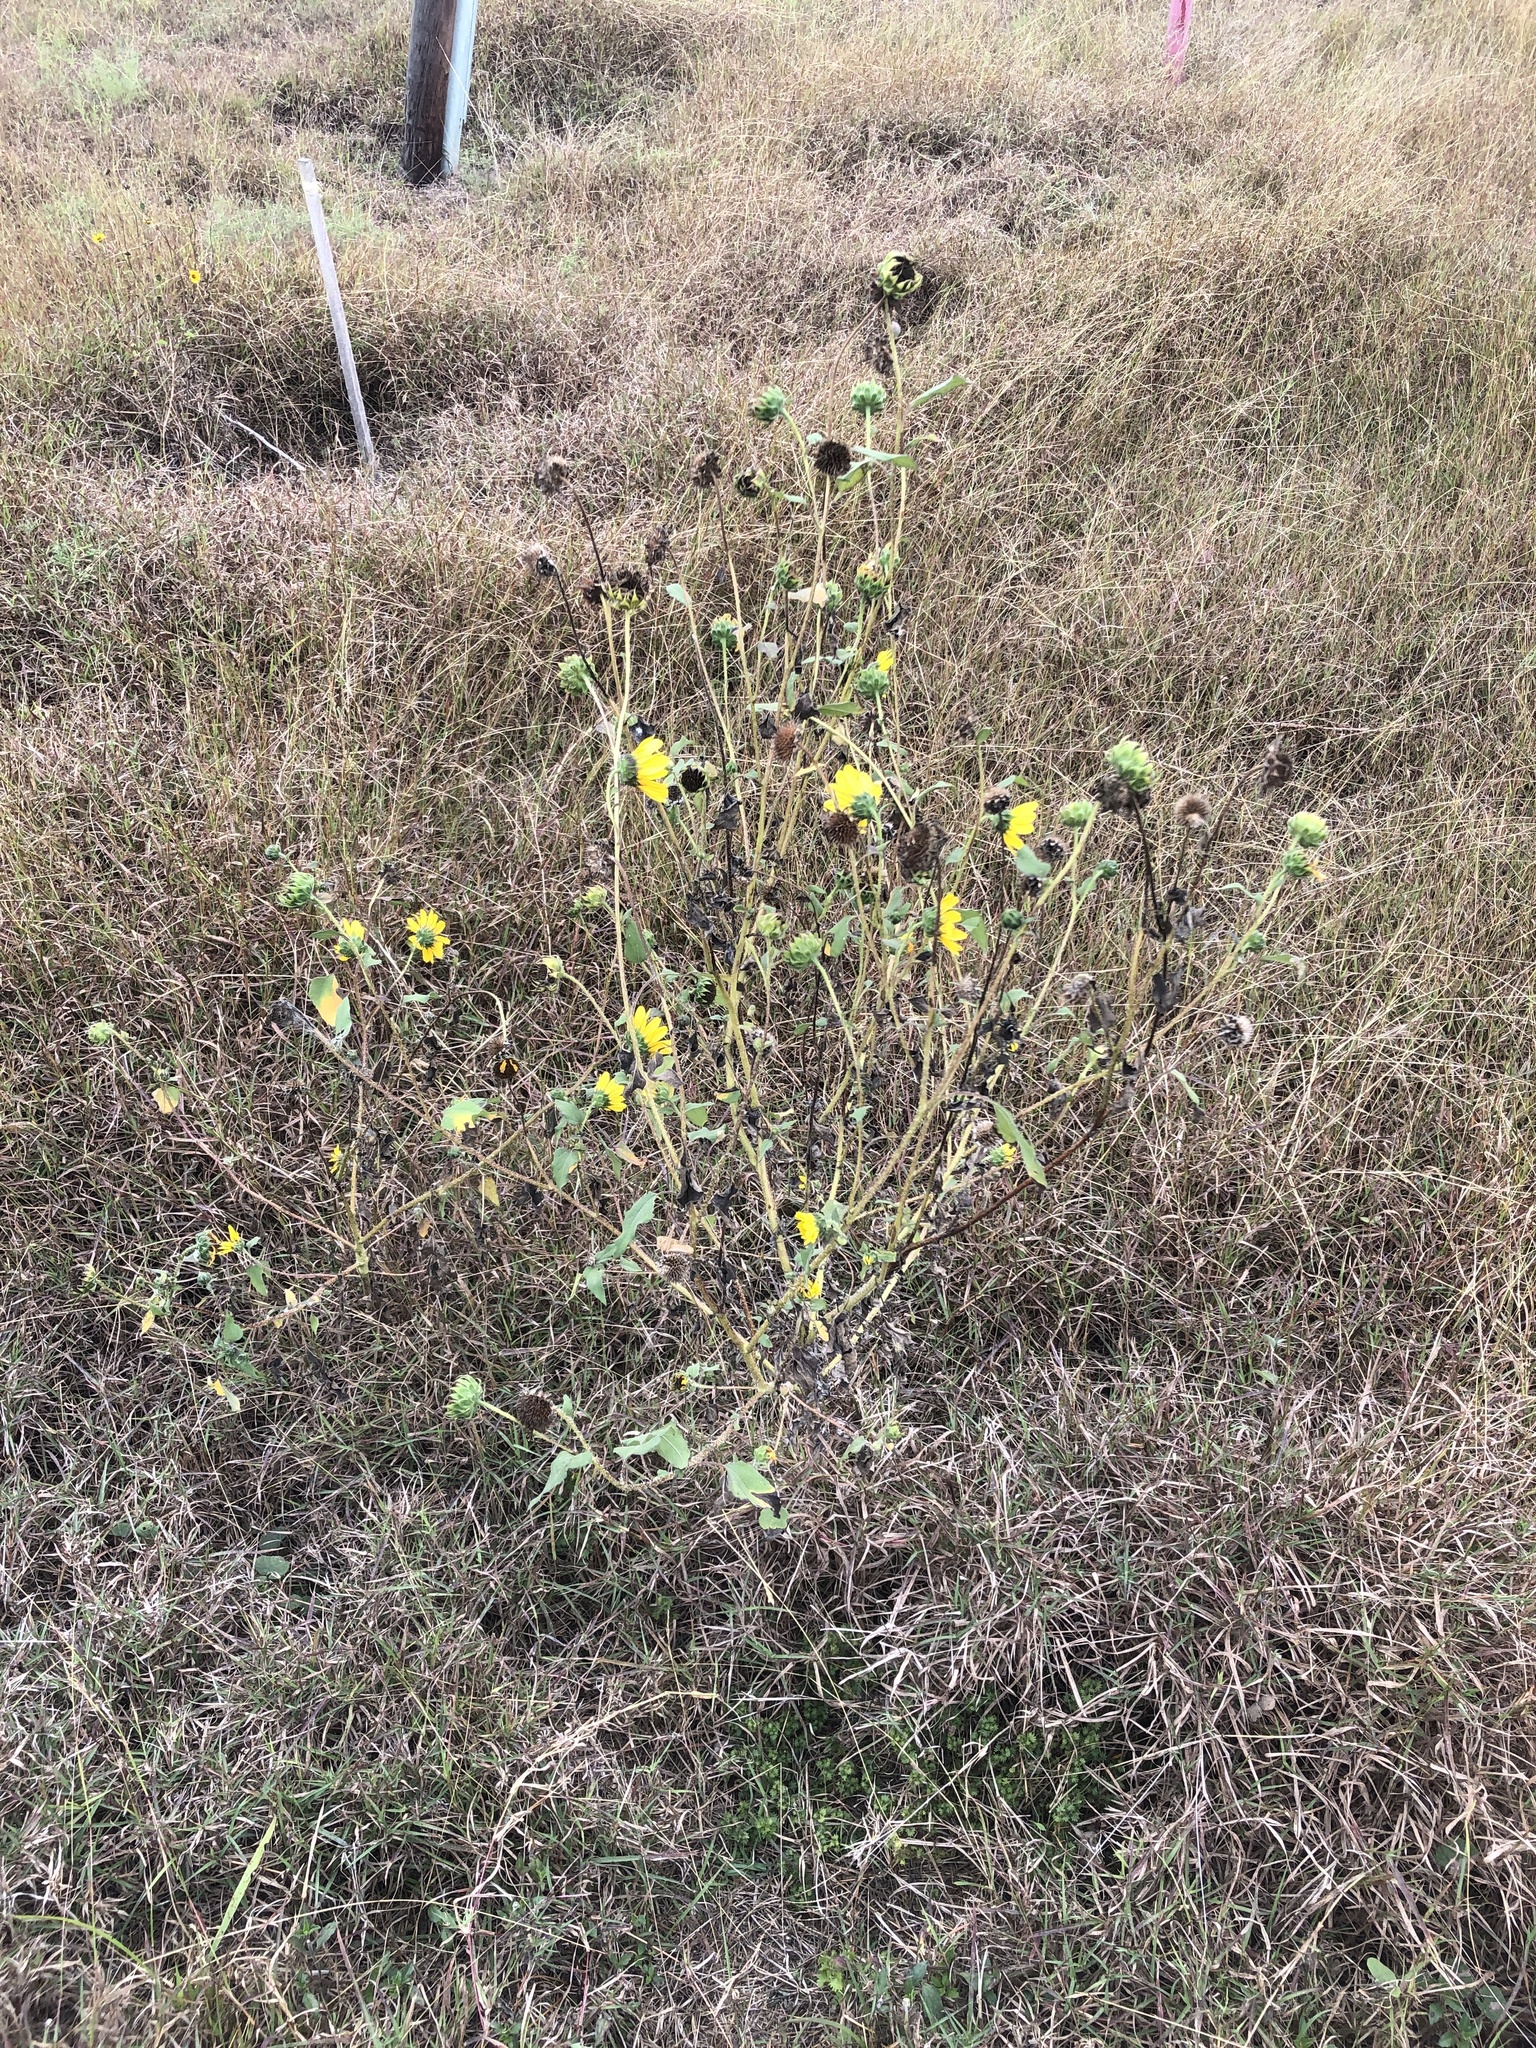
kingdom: Plantae
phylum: Tracheophyta
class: Magnoliopsida
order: Asterales
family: Asteraceae
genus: Helianthus
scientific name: Helianthus annuus
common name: Sunflower
